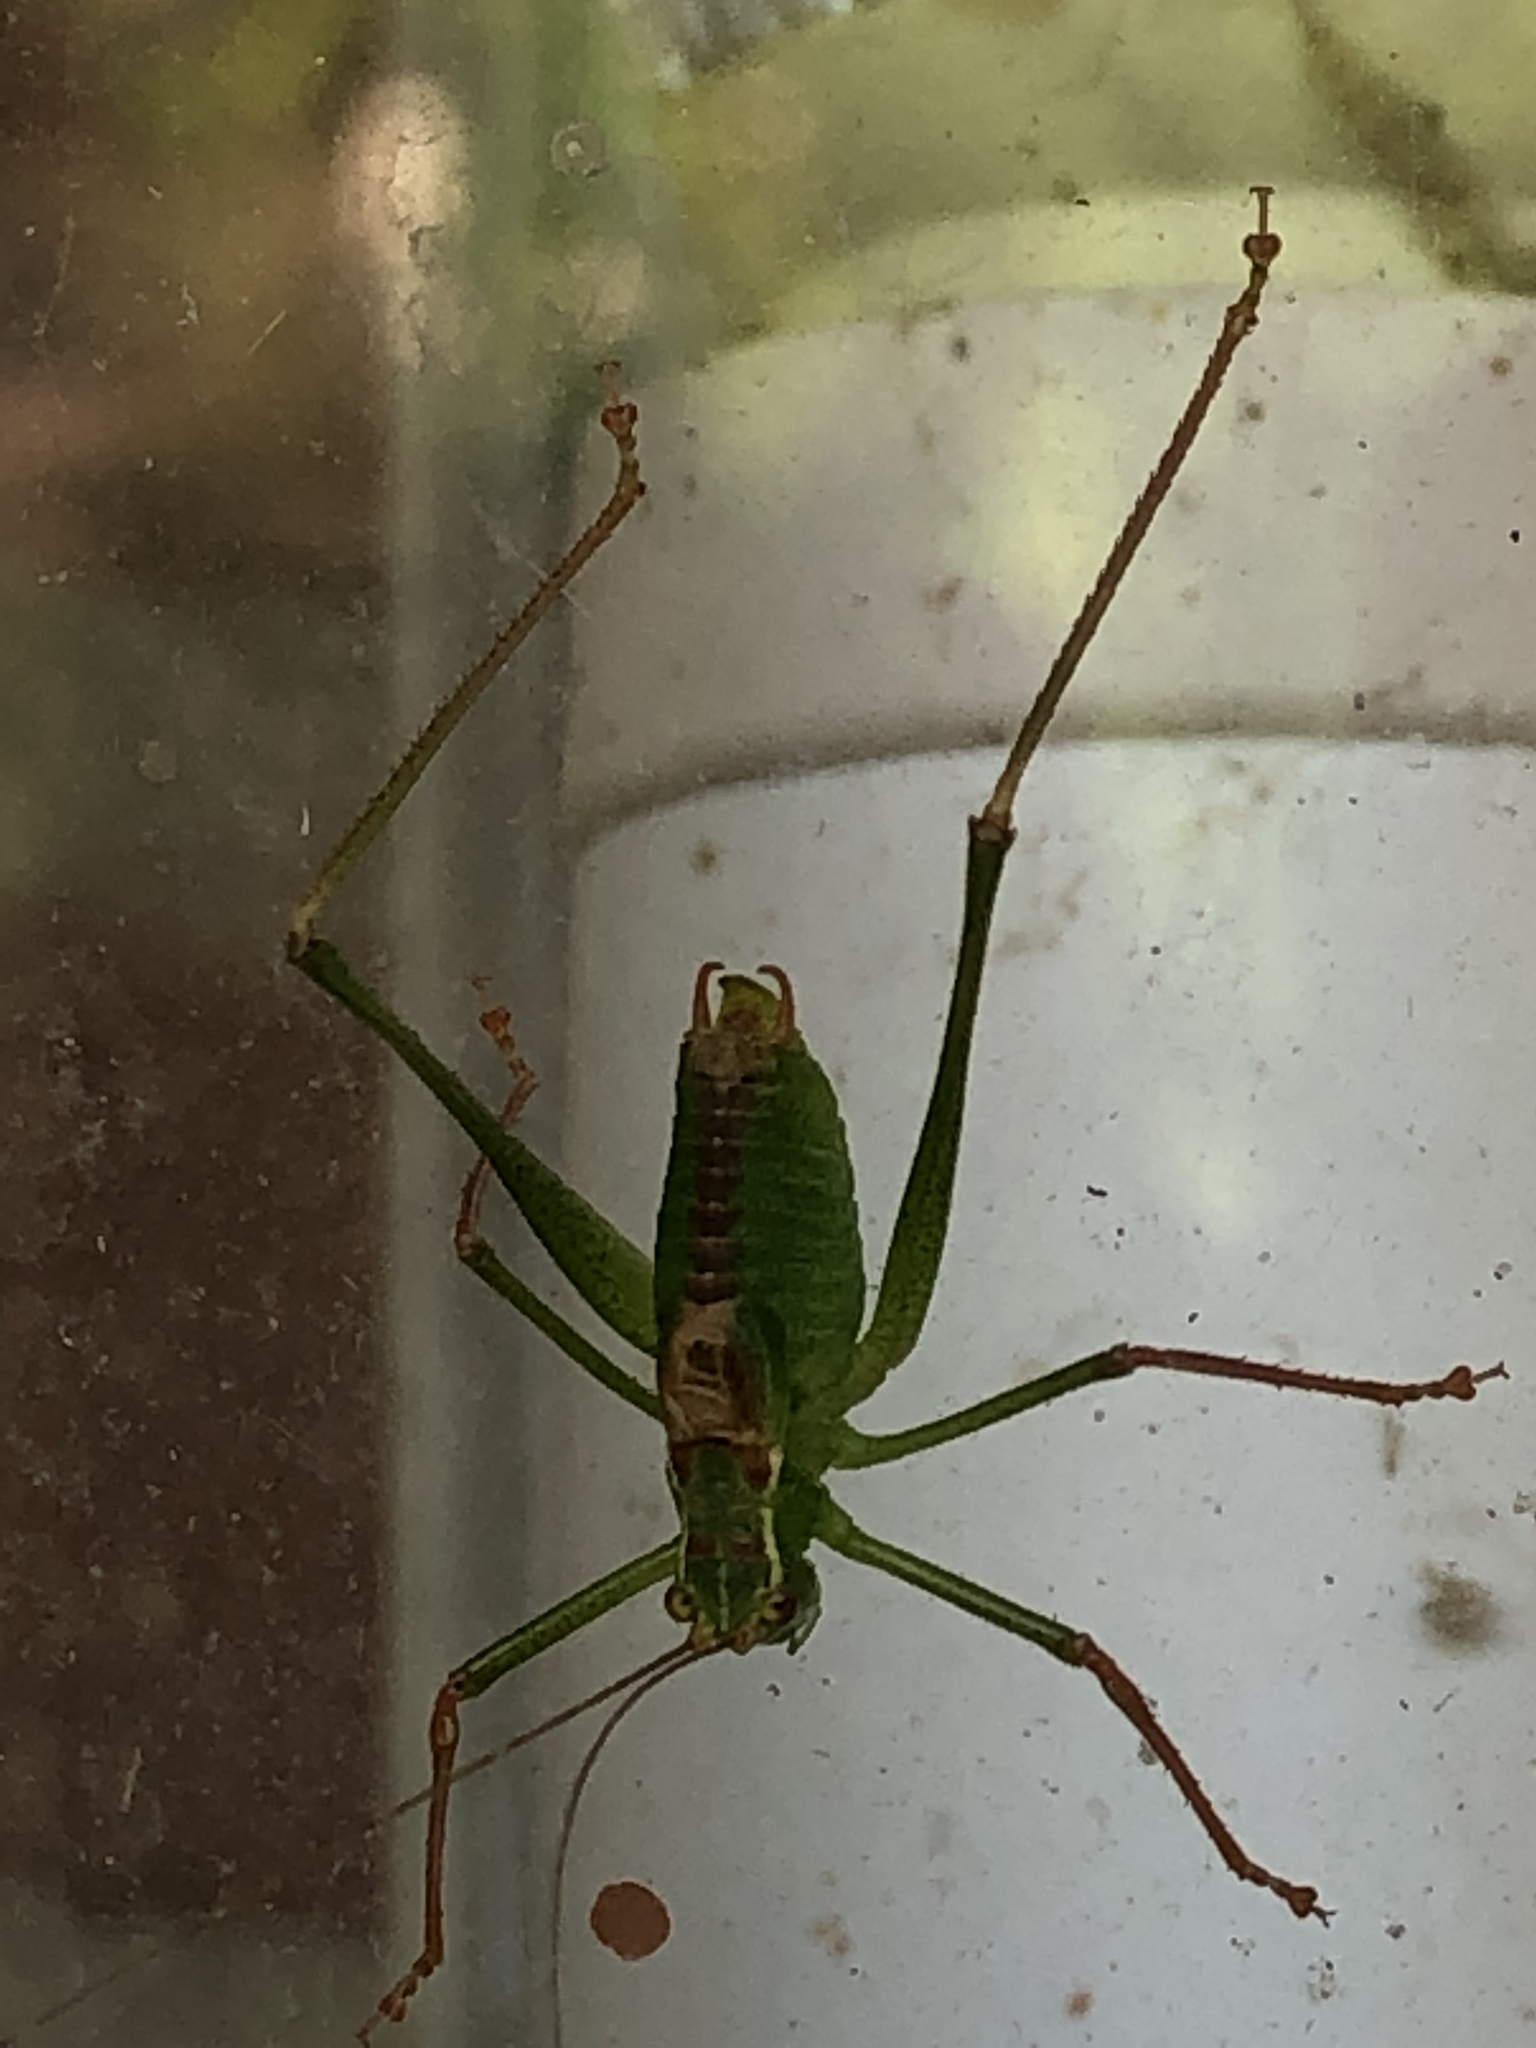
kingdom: Animalia
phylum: Arthropoda
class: Insecta
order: Orthoptera
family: Tettigoniidae
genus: Leptophyes
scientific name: Leptophyes punctatissima
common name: Speckled bush-cricket
